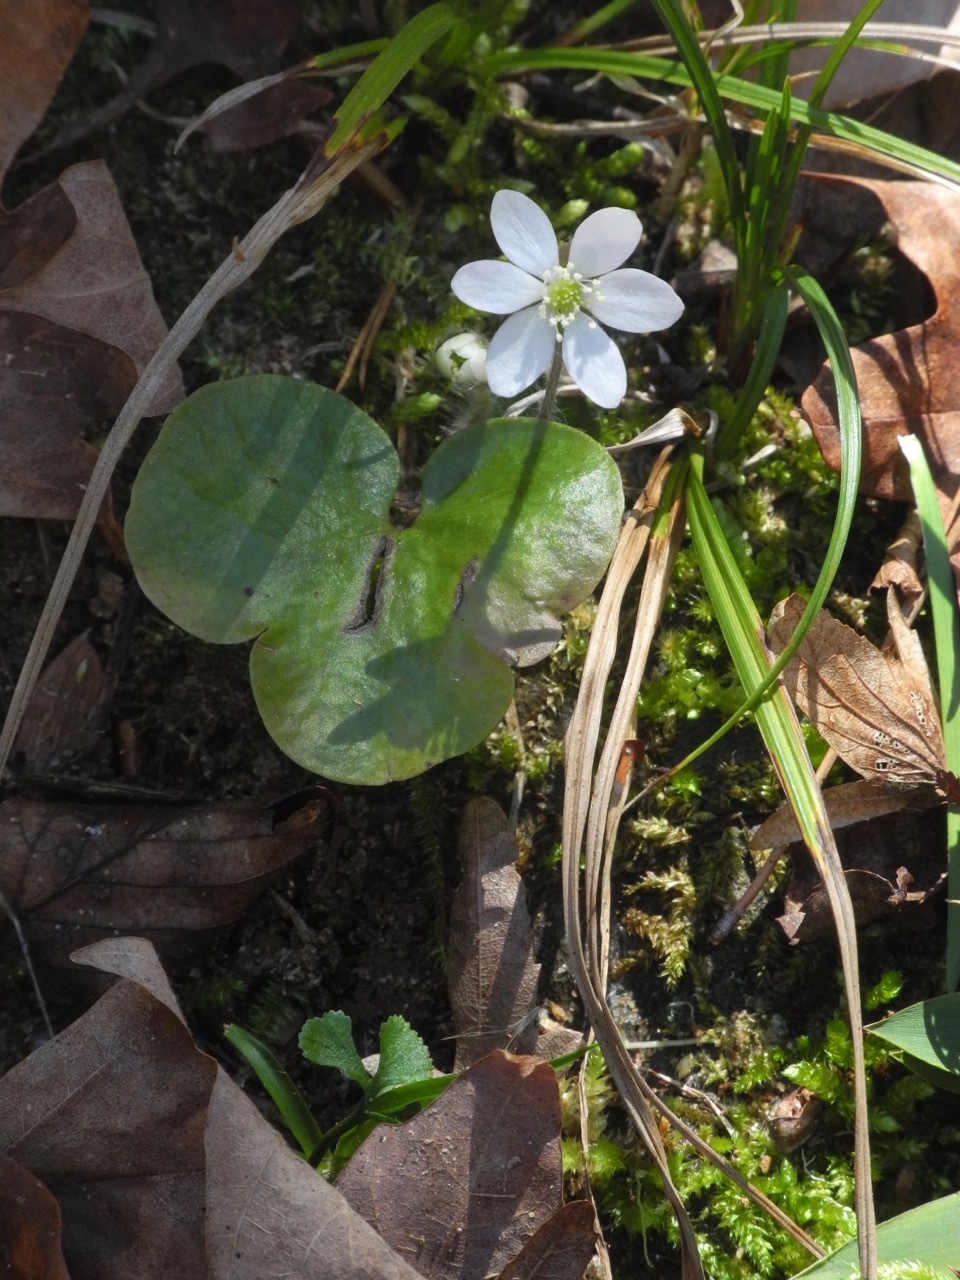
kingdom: Plantae
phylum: Tracheophyta
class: Magnoliopsida
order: Ranunculales
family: Ranunculaceae
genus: Hepatica
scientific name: Hepatica americana
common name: American hepatica
